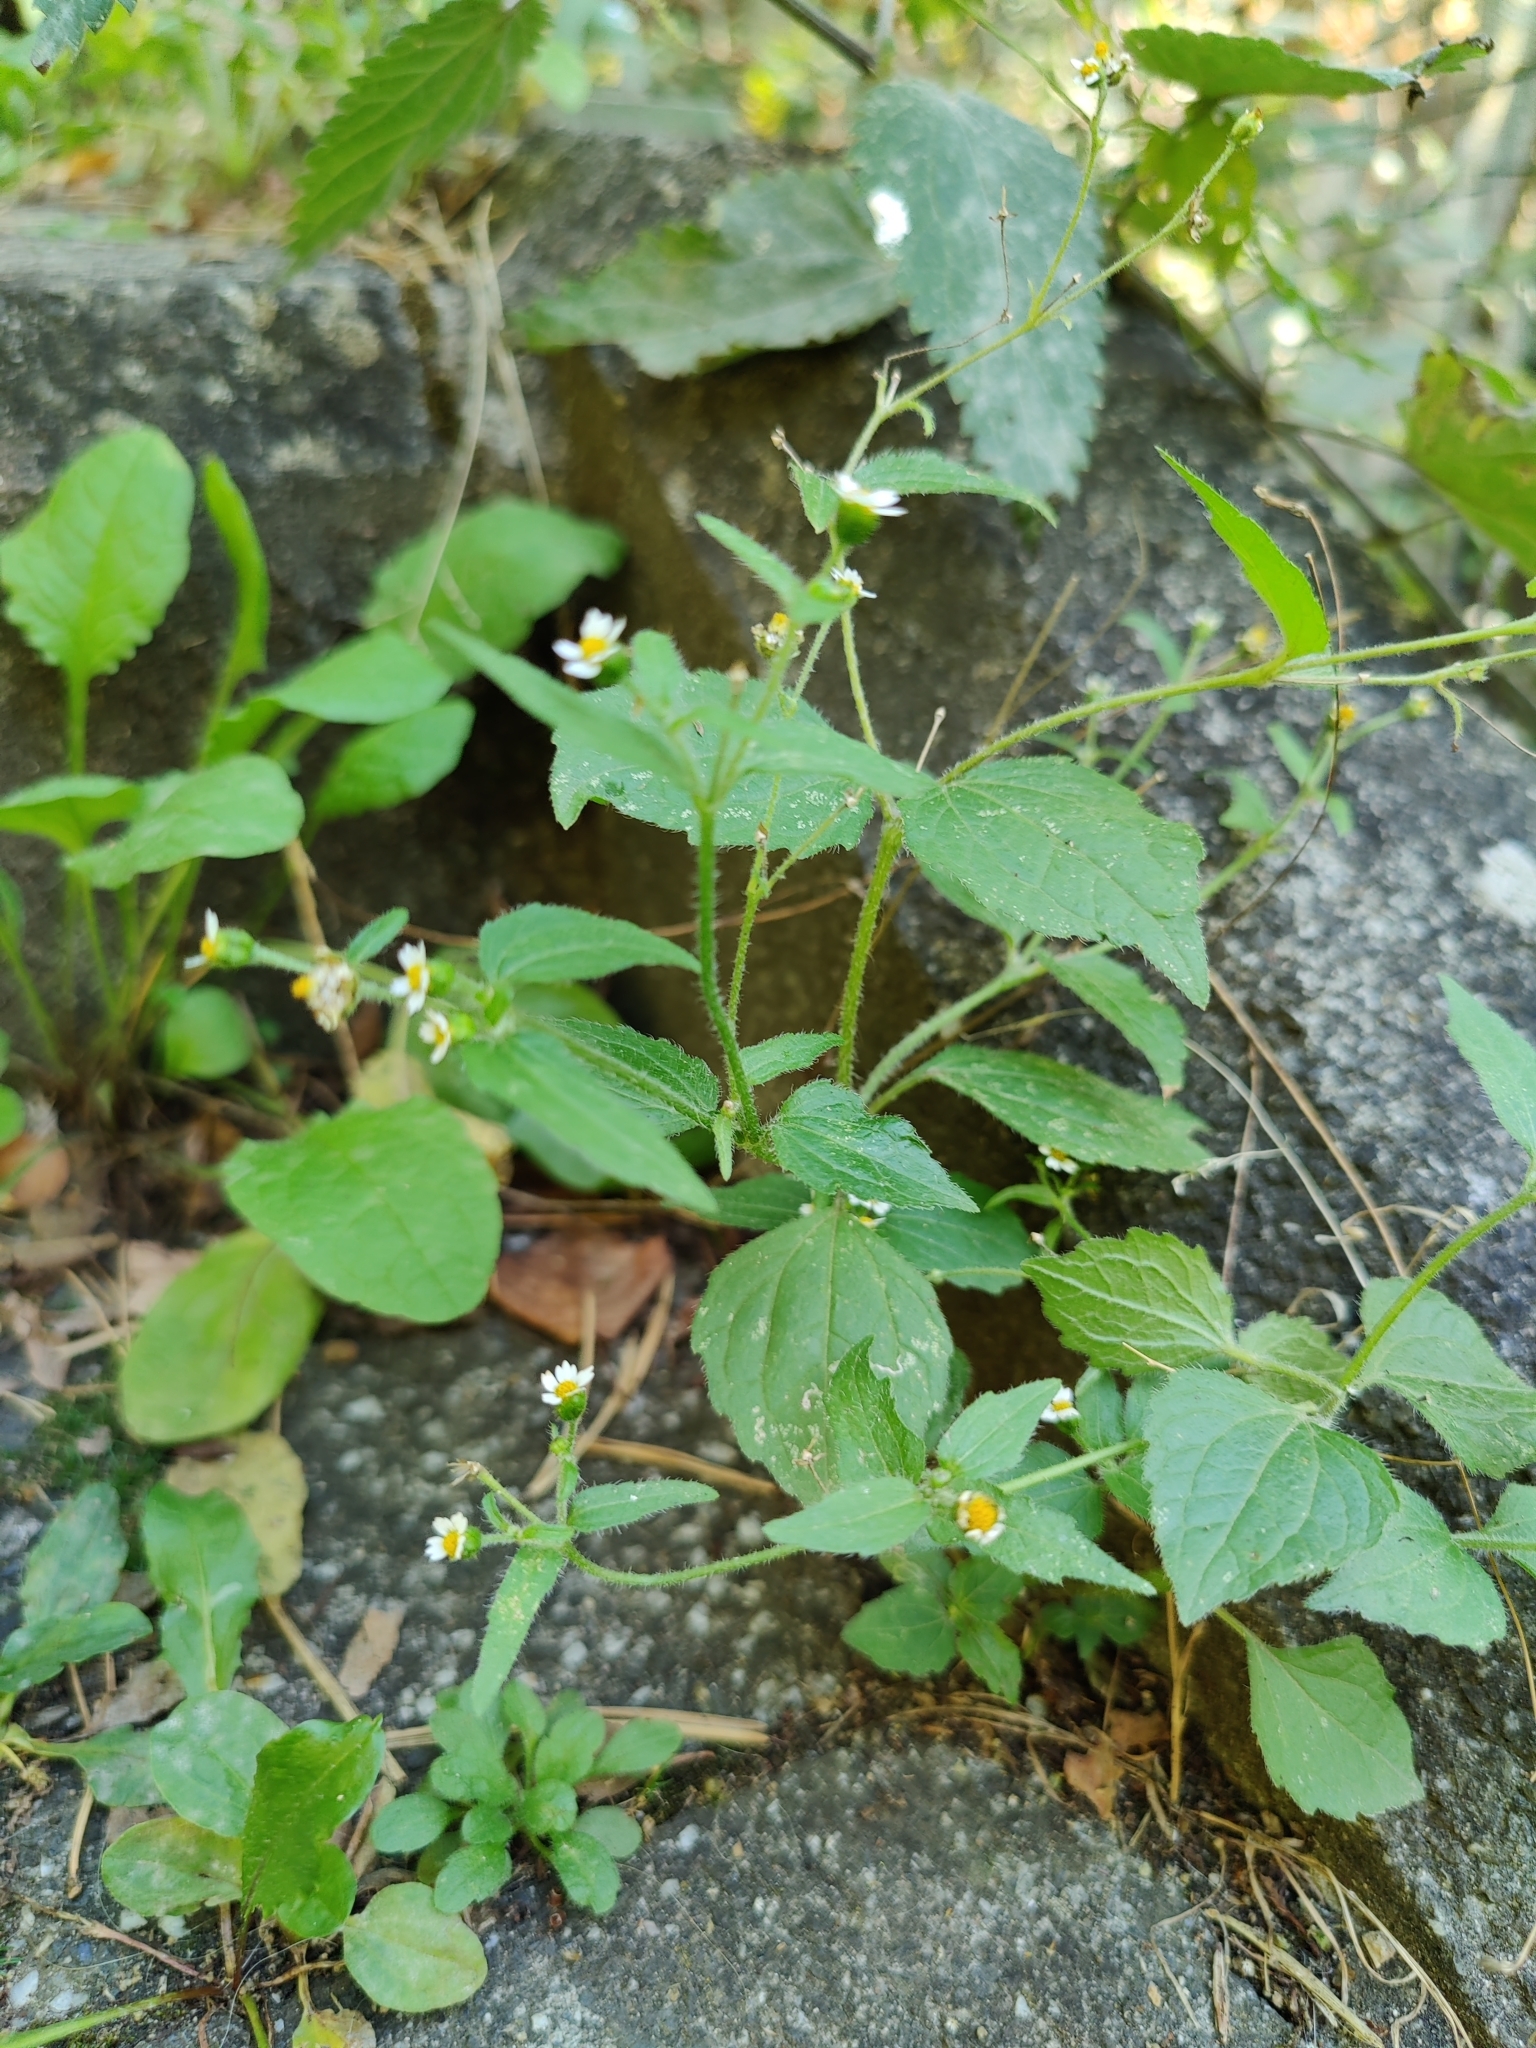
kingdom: Plantae
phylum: Tracheophyta
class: Magnoliopsida
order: Asterales
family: Asteraceae
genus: Galinsoga
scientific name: Galinsoga quadriradiata
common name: Shaggy soldier
